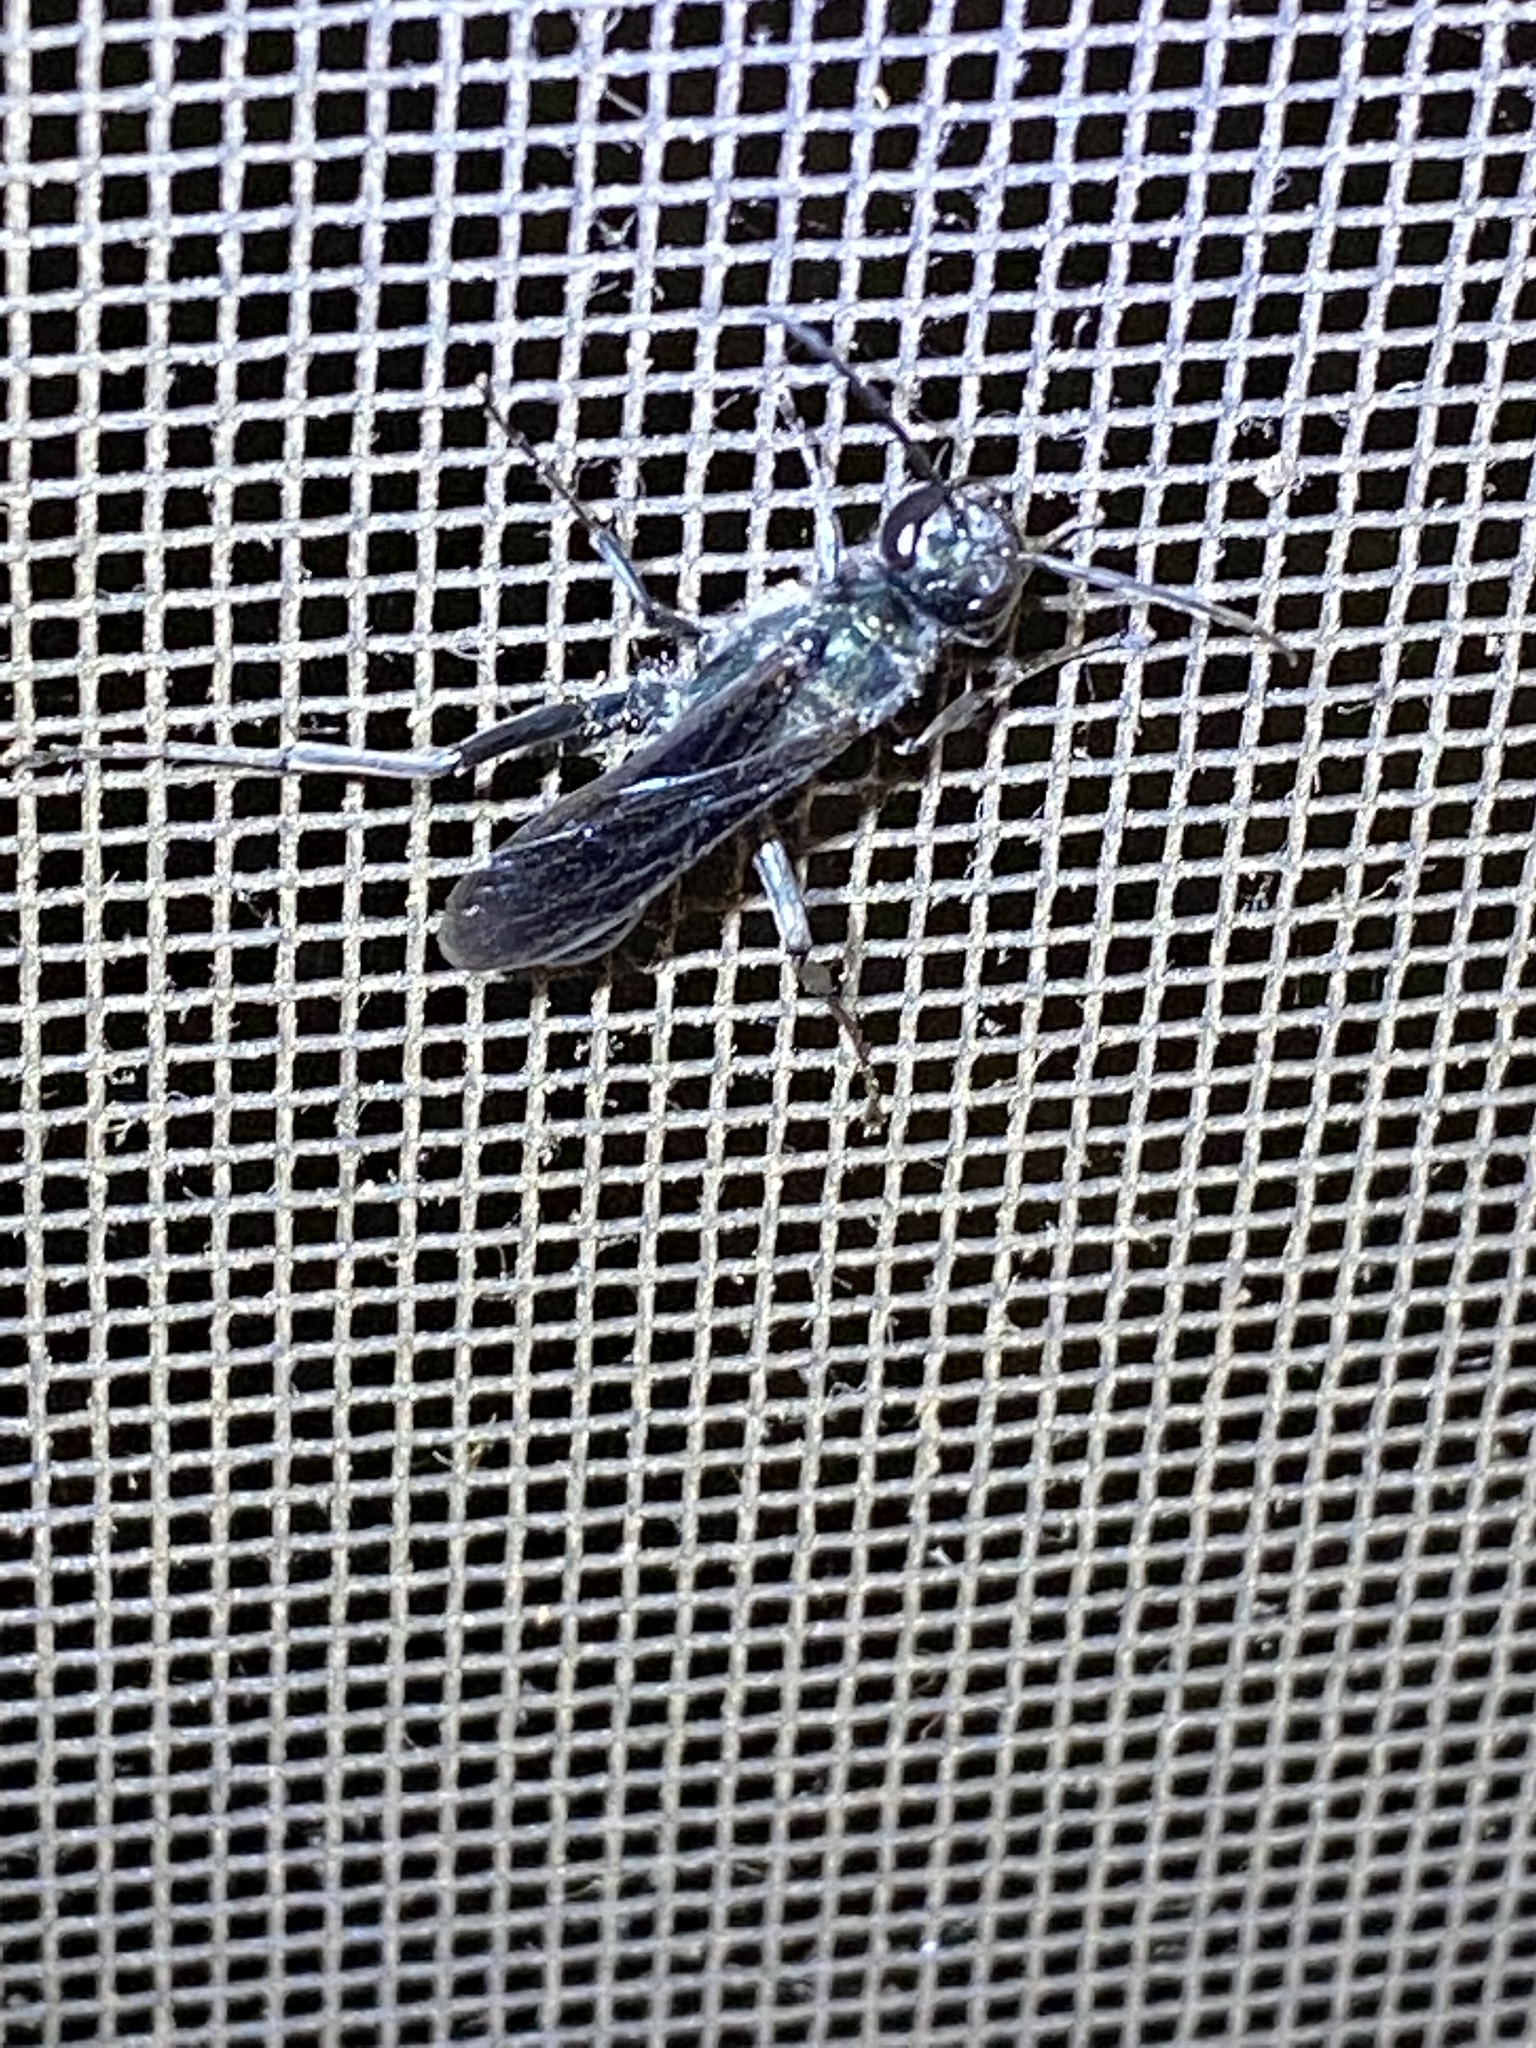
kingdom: Animalia
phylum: Arthropoda
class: Insecta
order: Hymenoptera
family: Sphecidae
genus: Chalybion
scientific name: Chalybion zimmermanni
